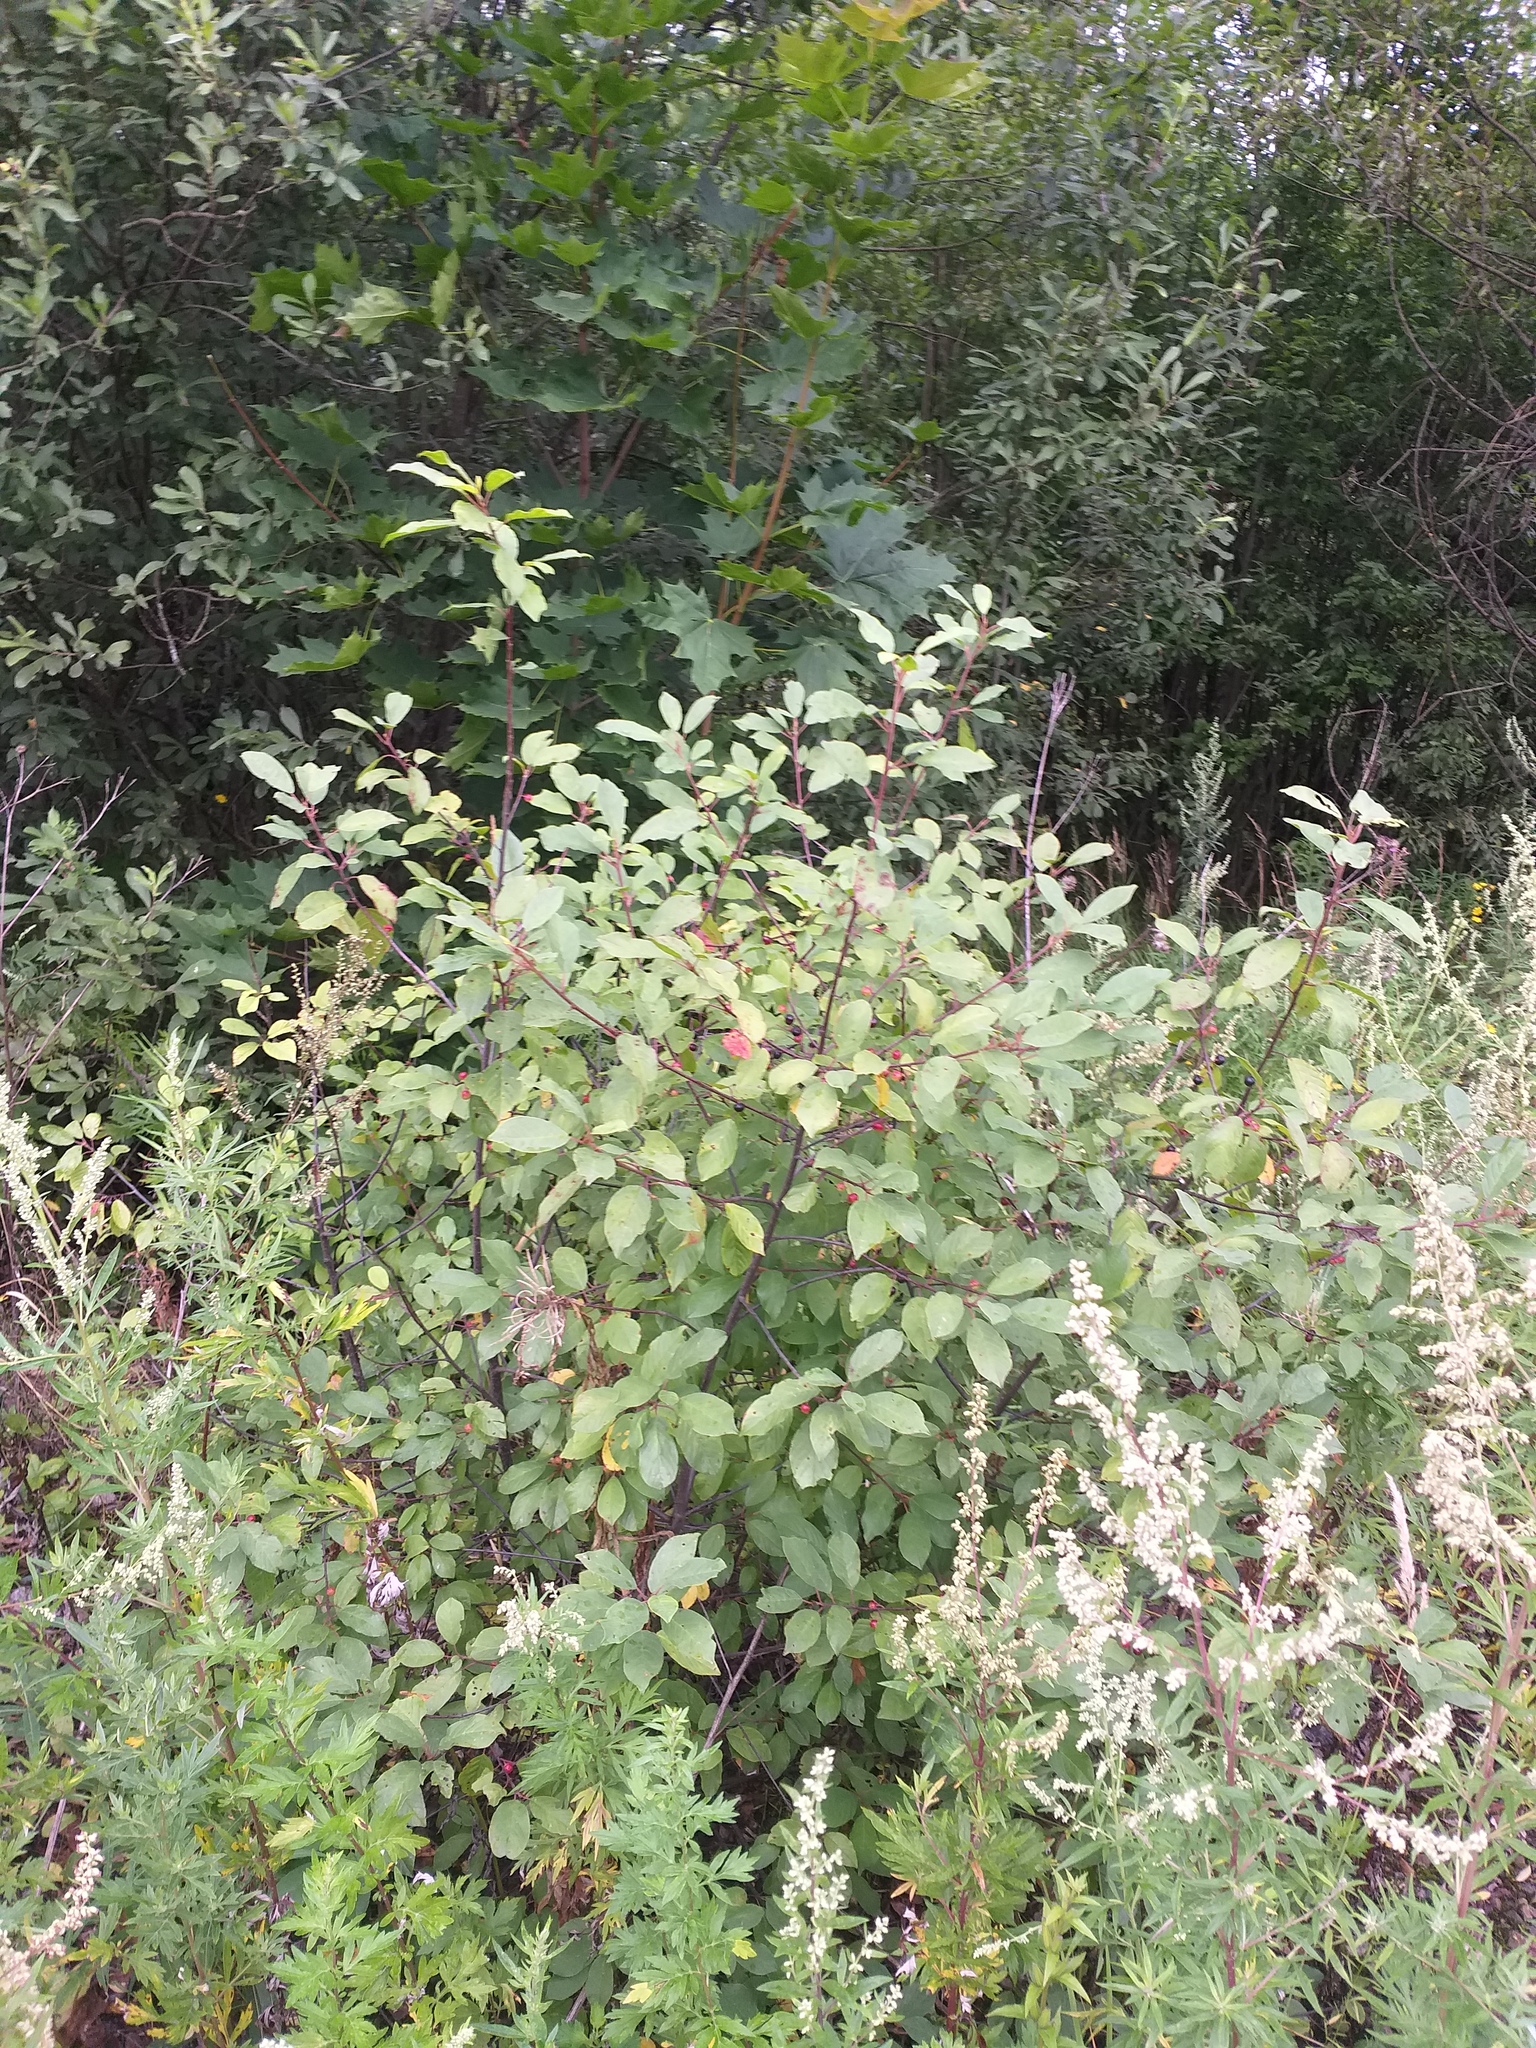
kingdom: Plantae
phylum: Tracheophyta
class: Magnoliopsida
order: Rosales
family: Rhamnaceae
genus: Frangula
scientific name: Frangula alnus
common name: Alder buckthorn
